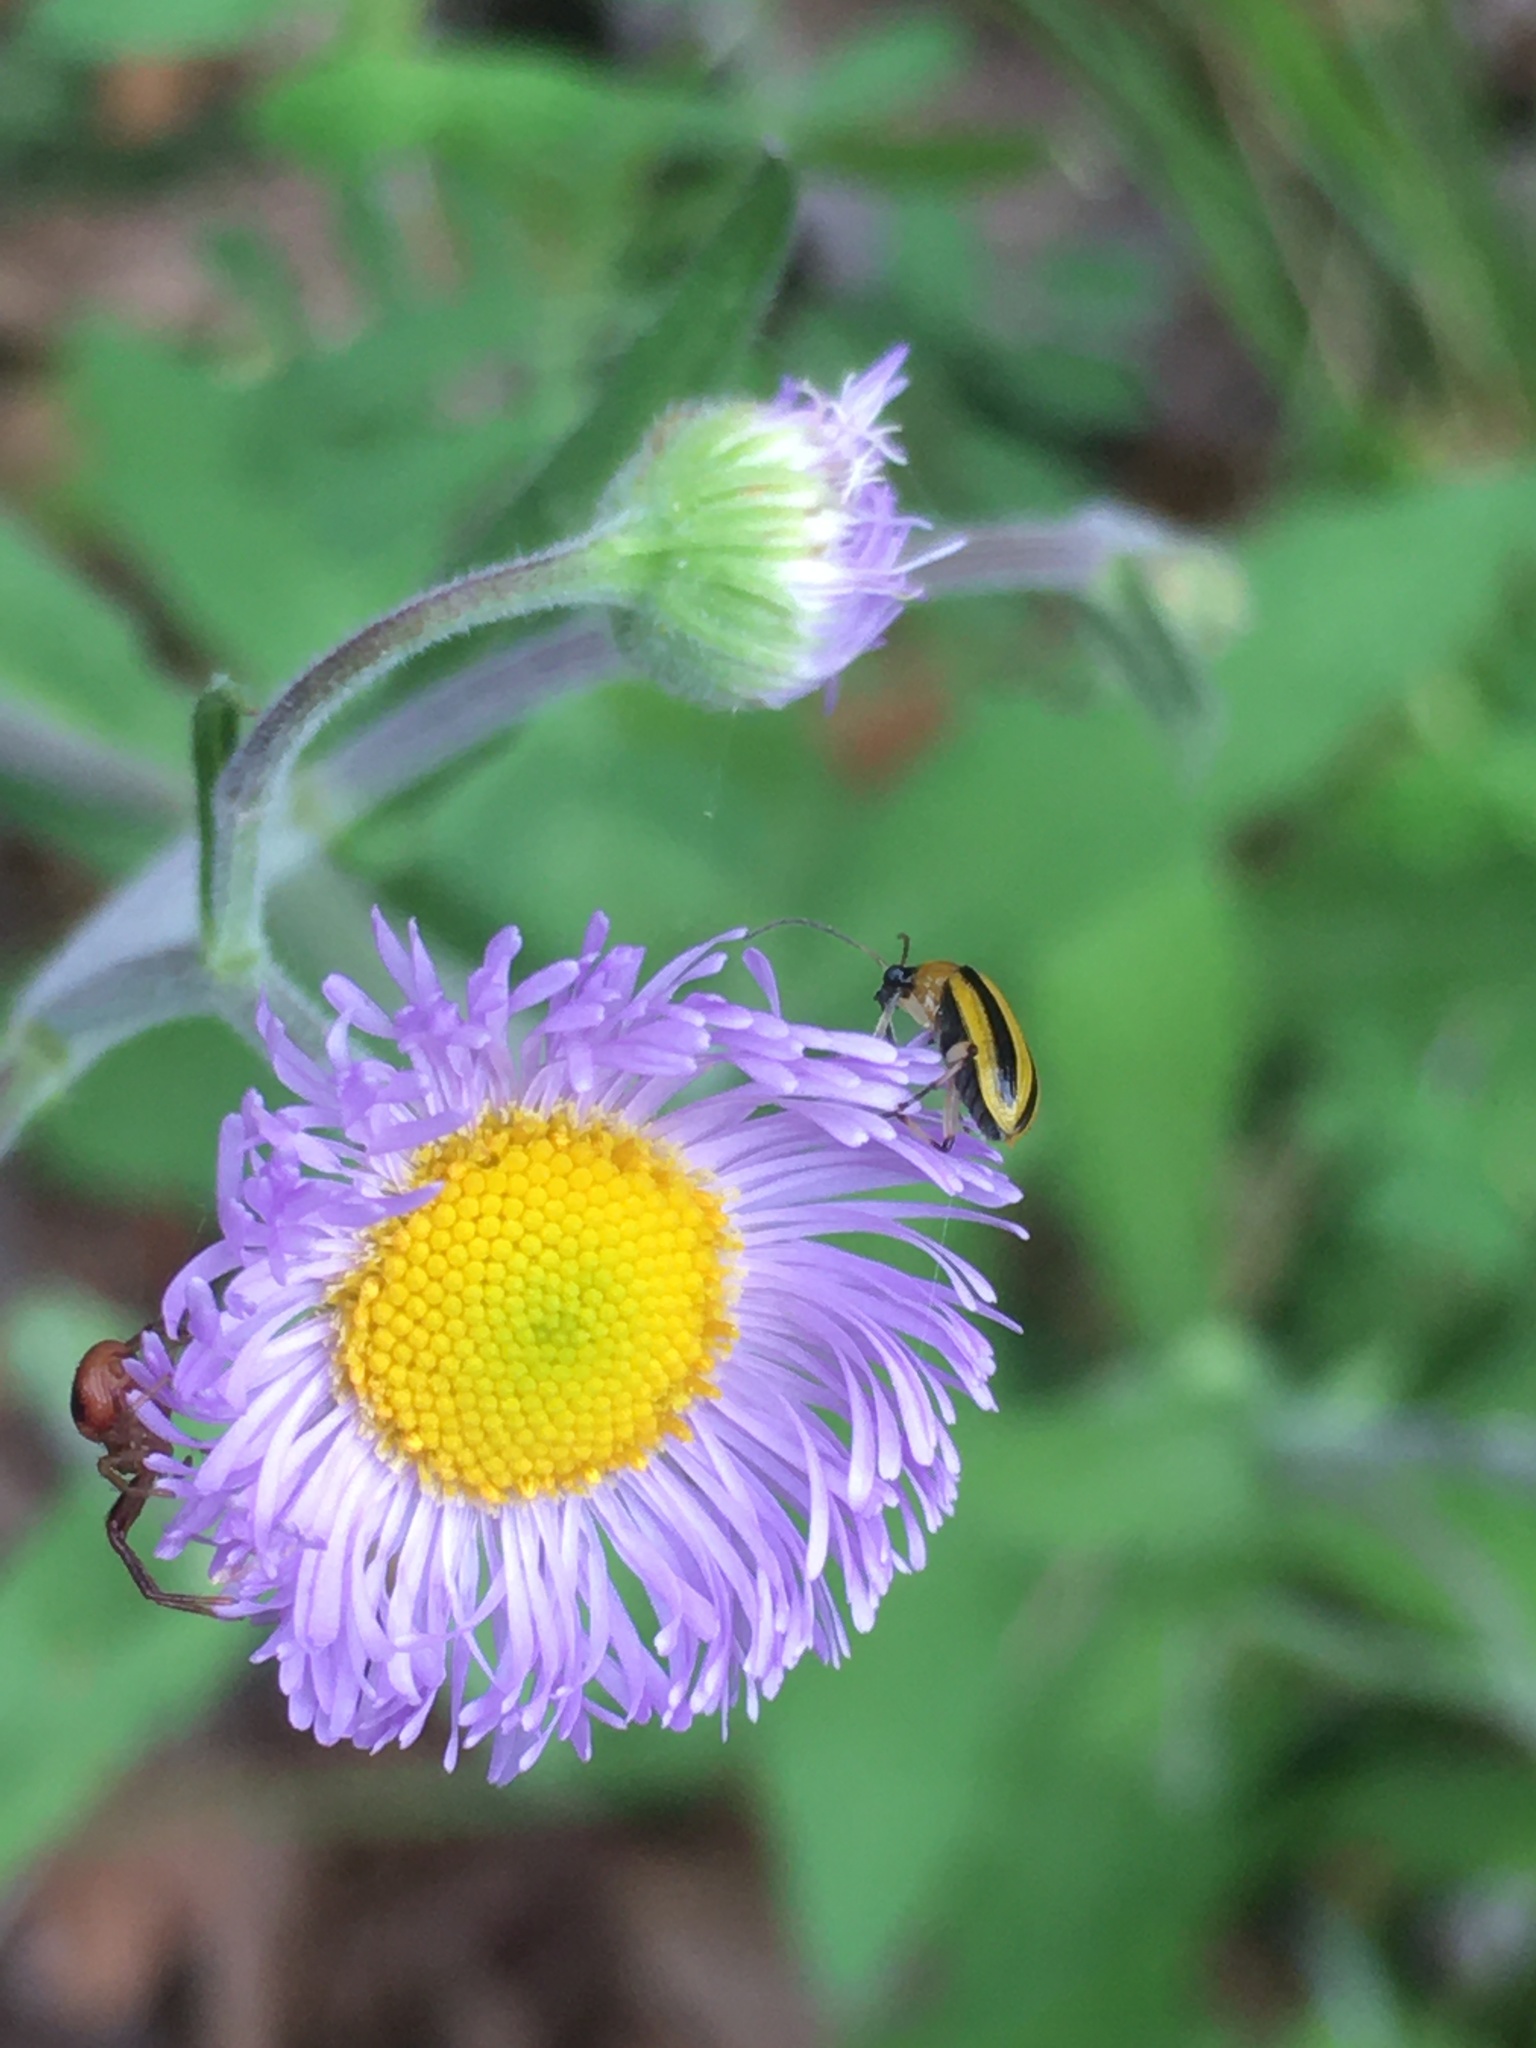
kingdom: Animalia
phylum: Arthropoda
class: Insecta
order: Coleoptera
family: Chrysomelidae
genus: Acalymma
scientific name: Acalymma vittatum
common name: Striped cucumber beetle
